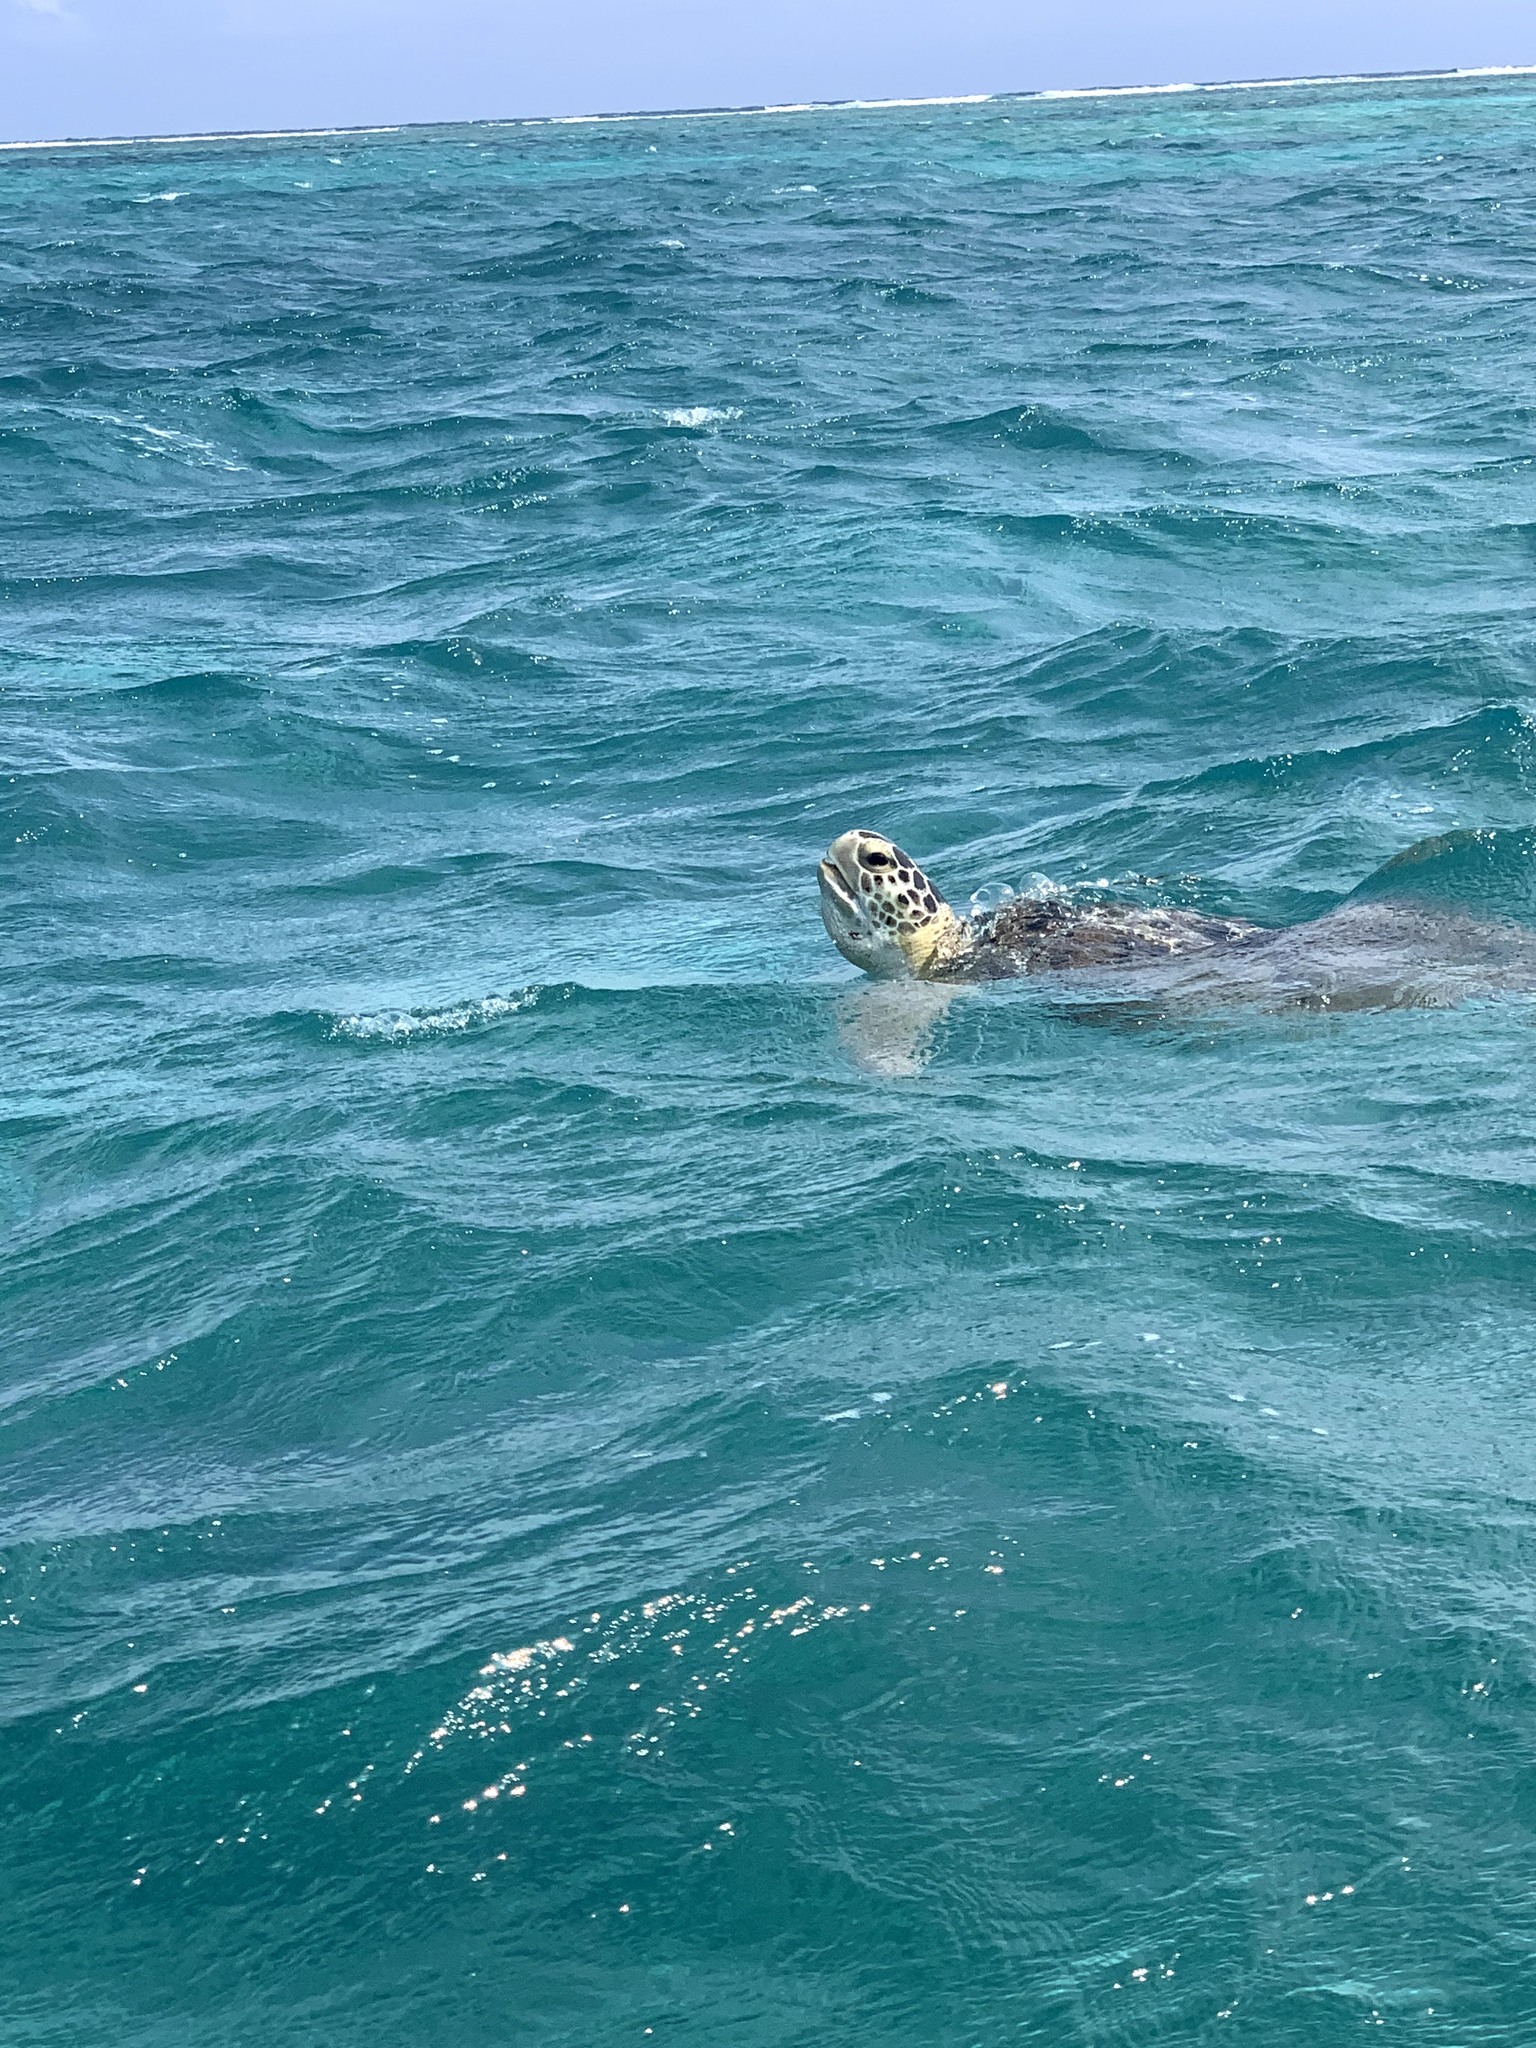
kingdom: Animalia
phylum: Chordata
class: Testudines
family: Cheloniidae
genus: Chelonia
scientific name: Chelonia mydas
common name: Green turtle
